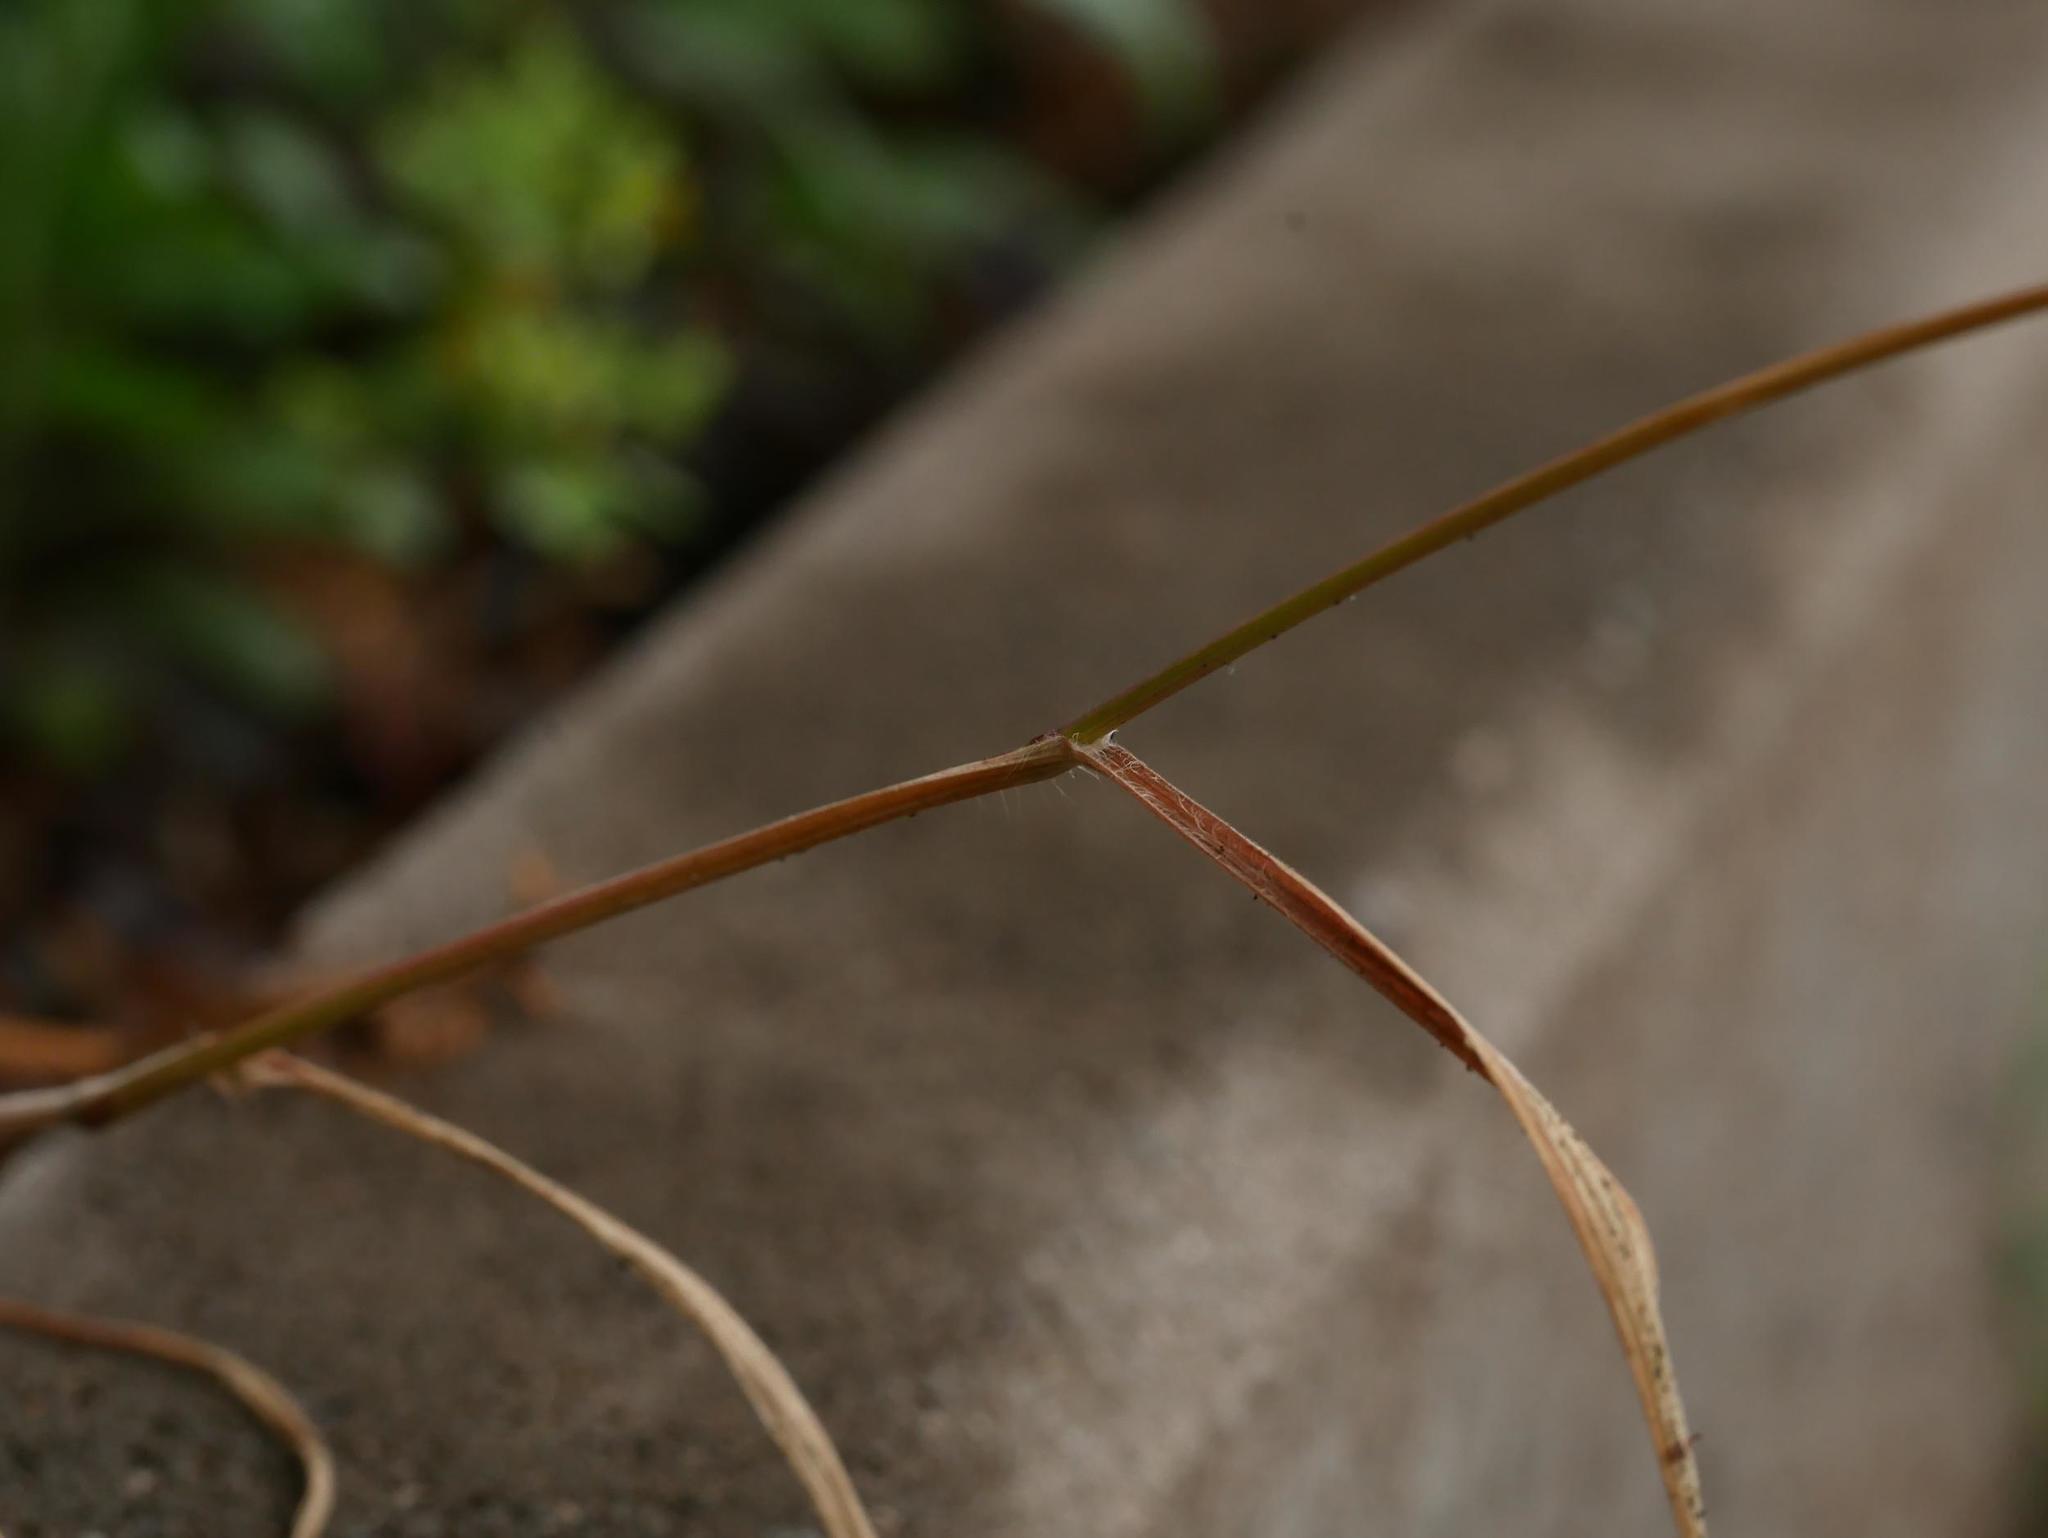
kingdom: Plantae
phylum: Tracheophyta
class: Liliopsida
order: Poales
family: Poaceae
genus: Bromus
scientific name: Bromus tectorum
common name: Cheatgrass
